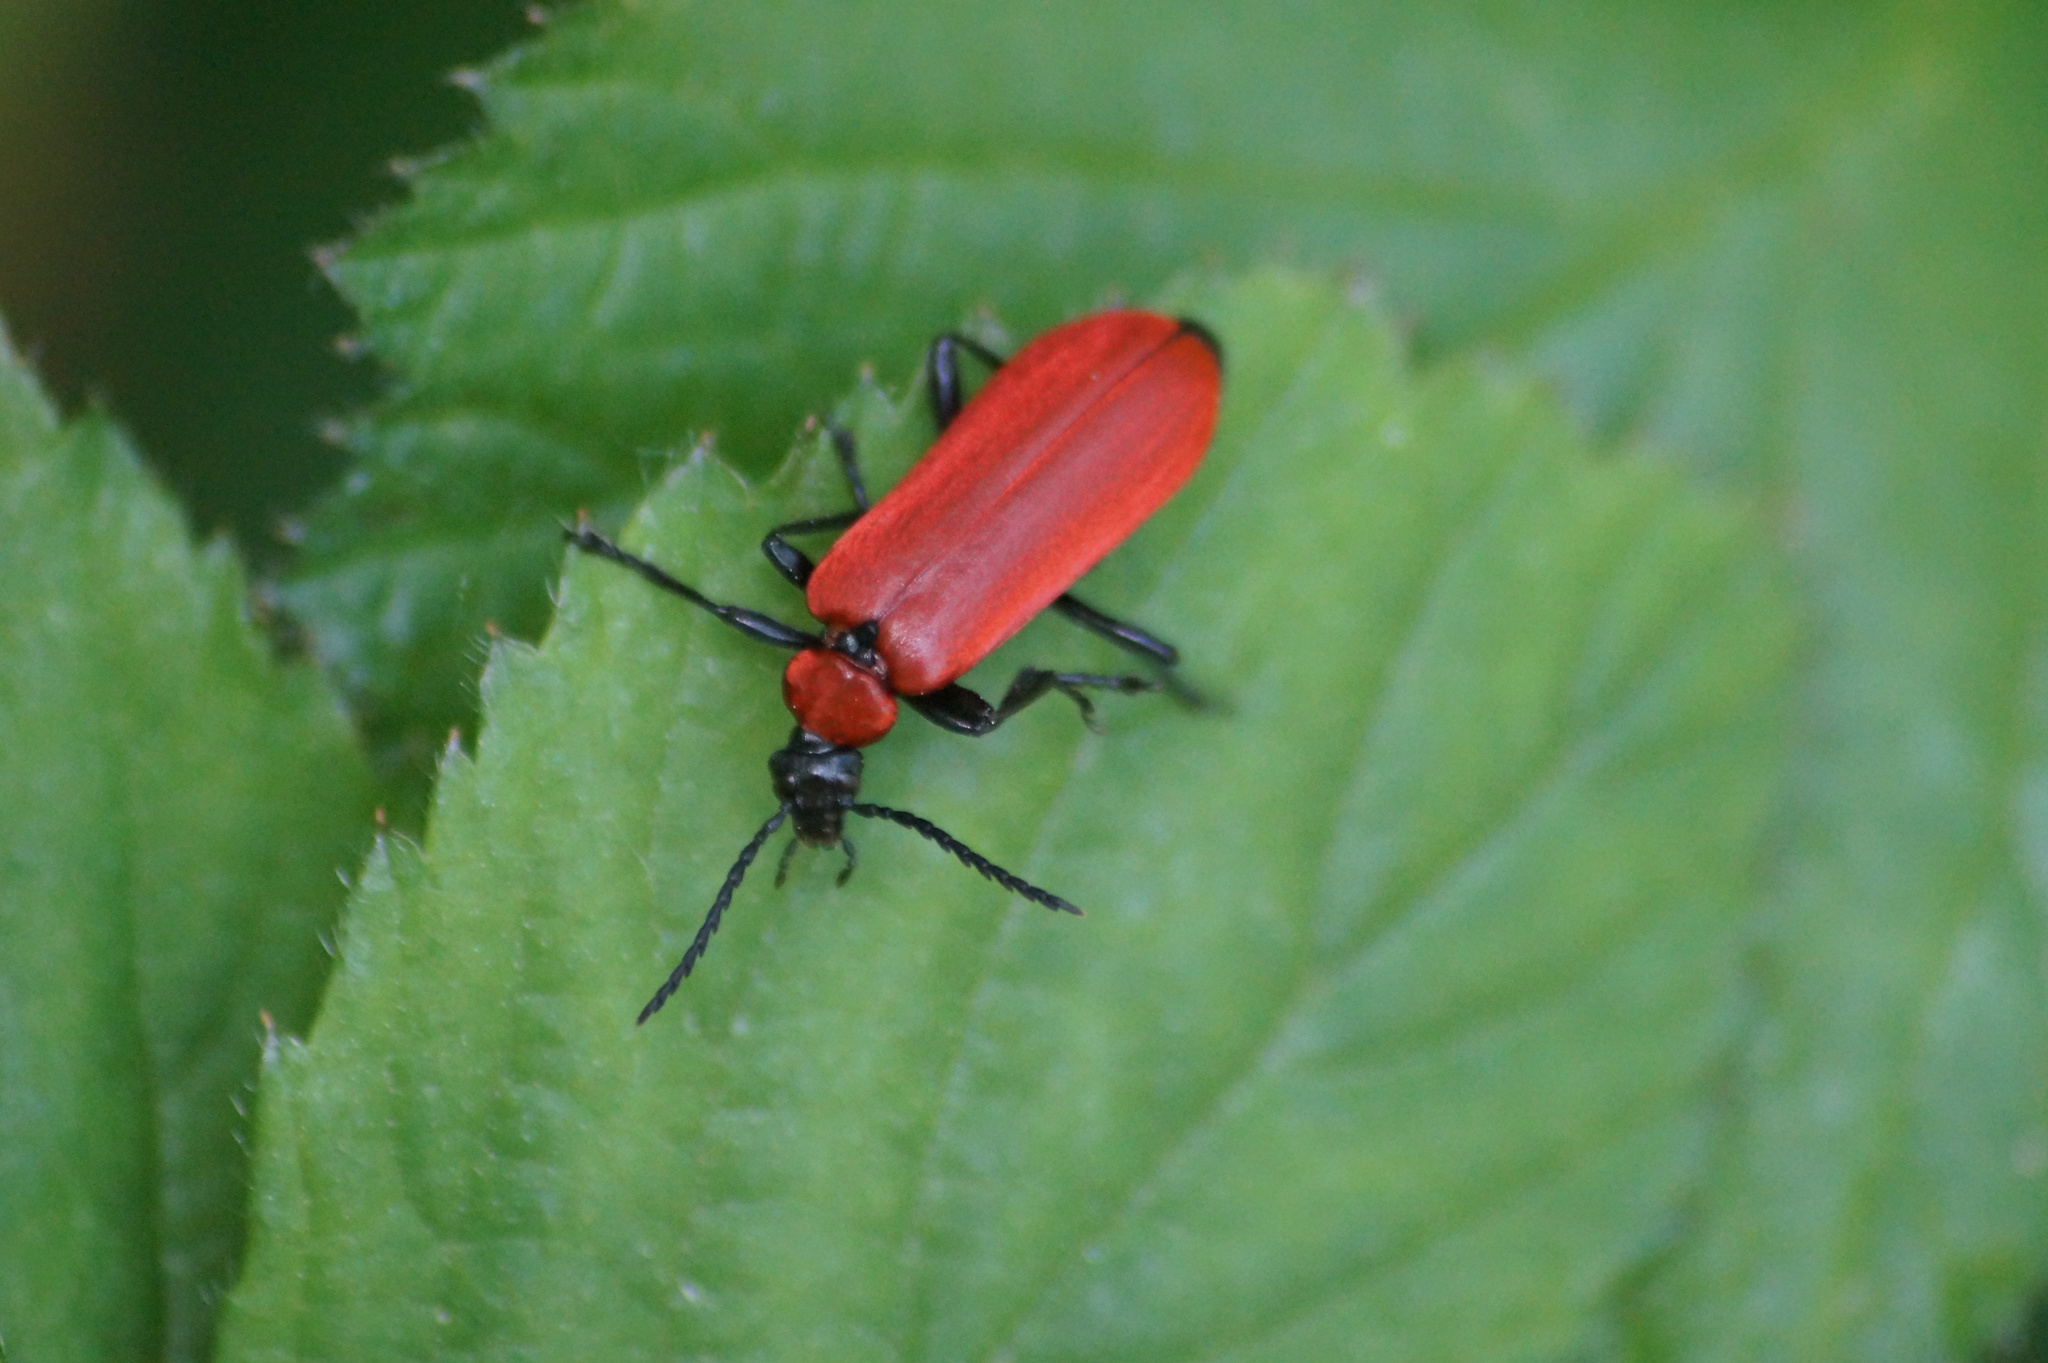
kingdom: Animalia
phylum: Arthropoda
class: Insecta
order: Coleoptera
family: Pyrochroidae
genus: Pyrochroa
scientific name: Pyrochroa coccinea
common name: Black-headed cardinal beetle
